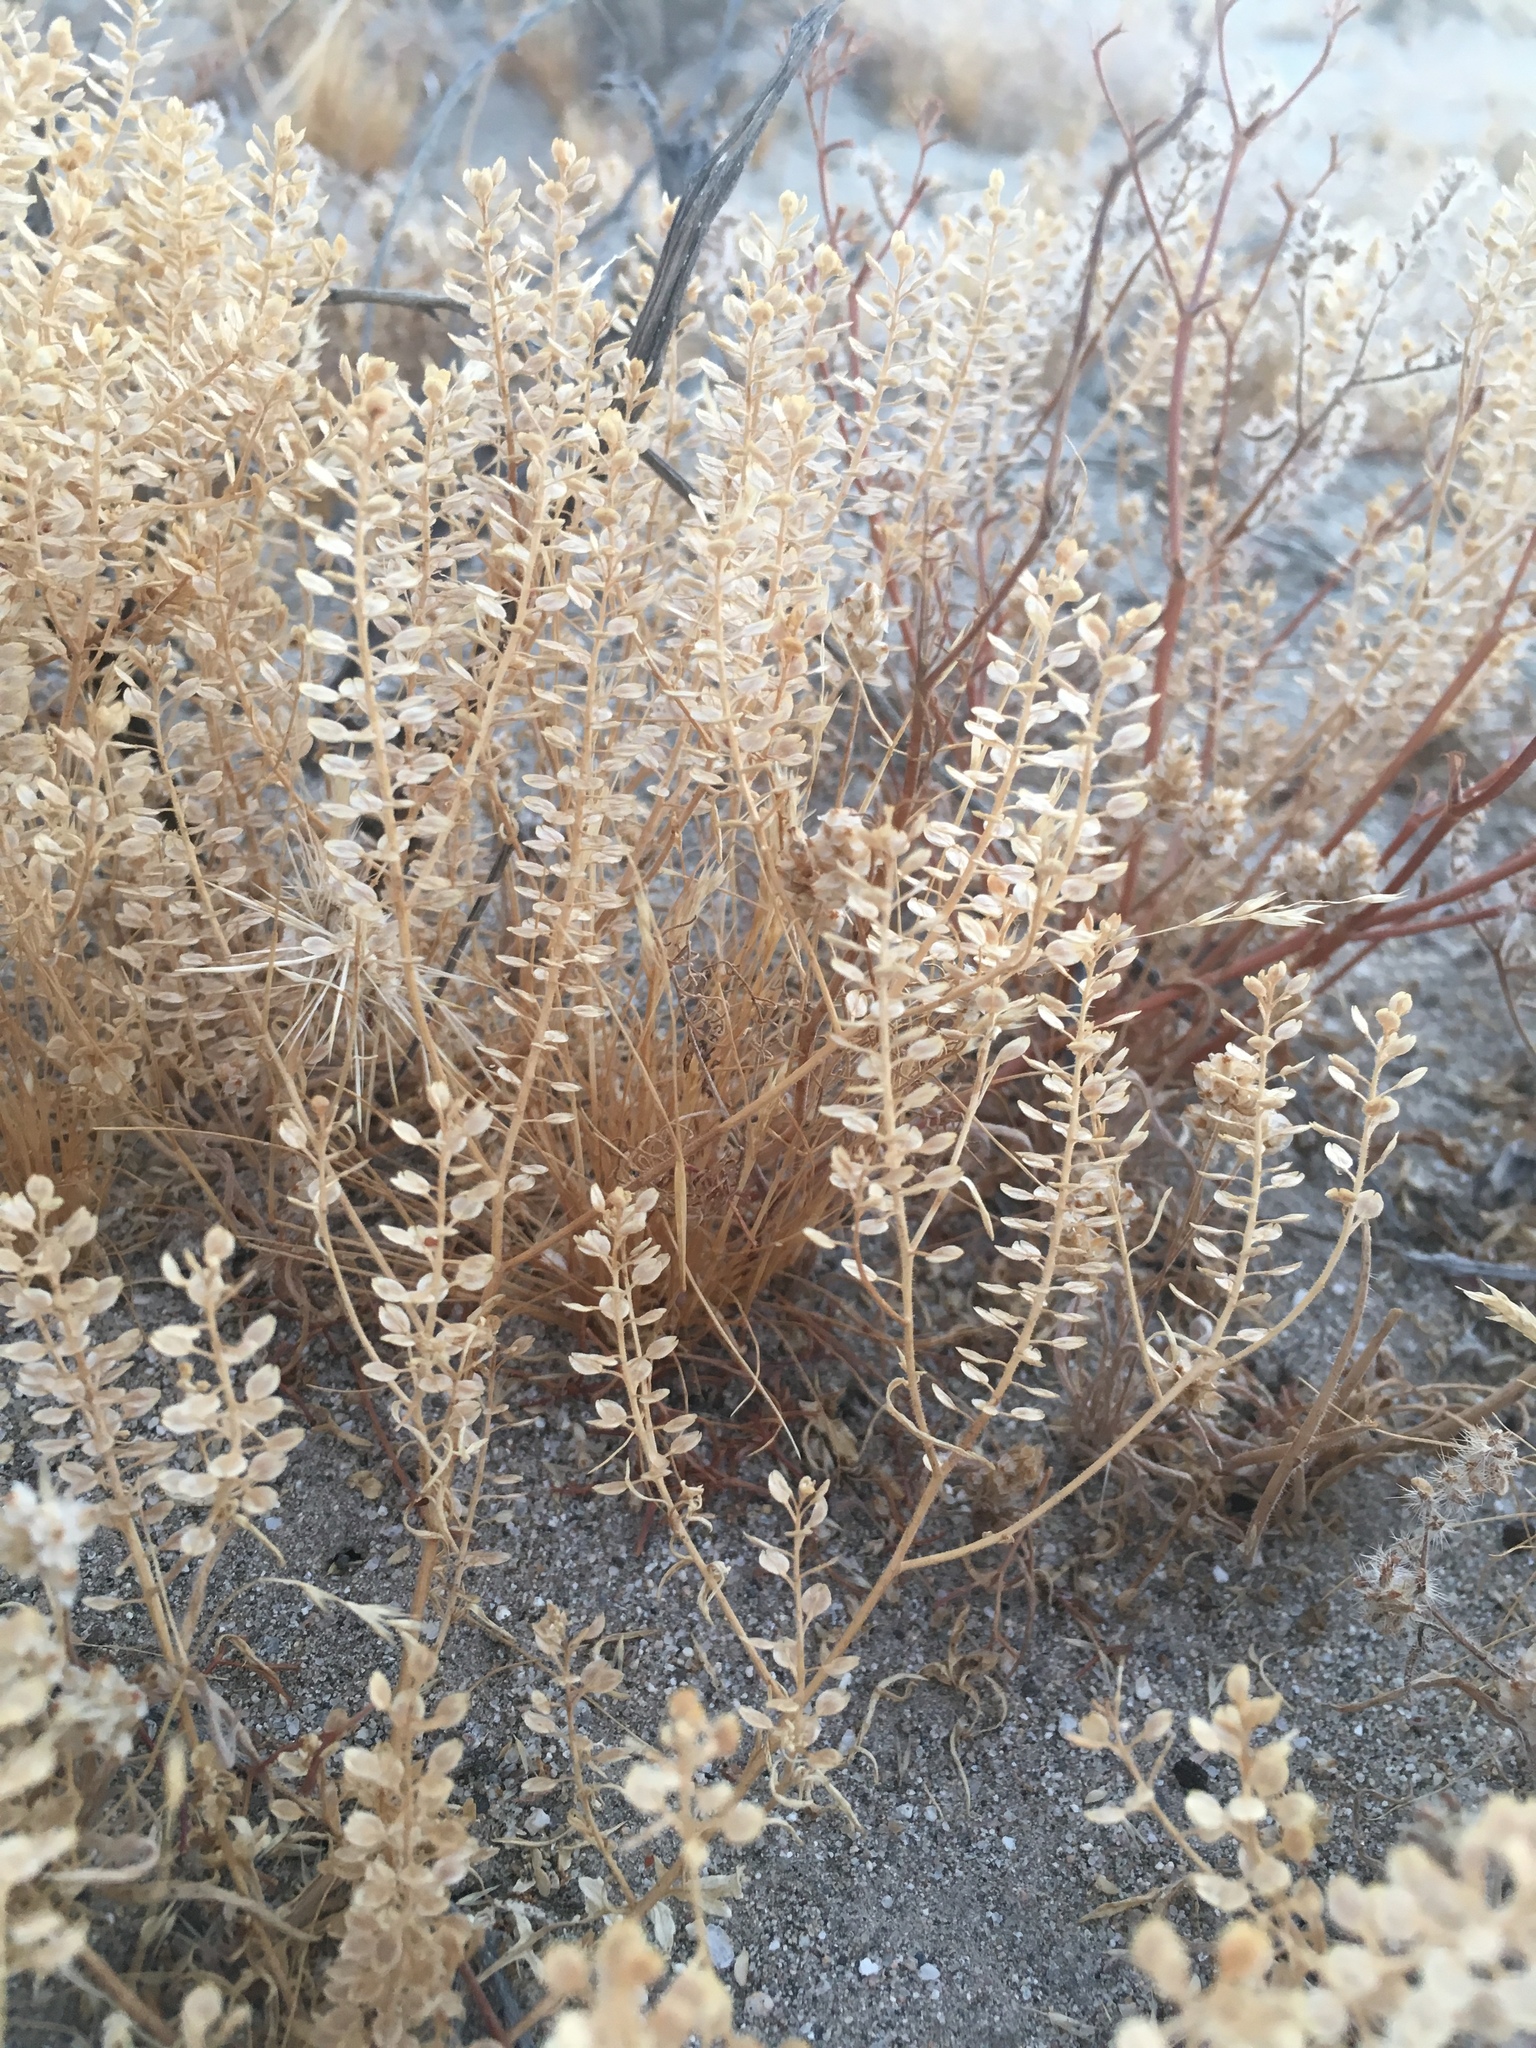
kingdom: Plantae
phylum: Tracheophyta
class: Magnoliopsida
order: Brassicales
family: Brassicaceae
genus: Lepidium
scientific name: Lepidium lasiocarpum
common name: Hairy-pod pepperwort
